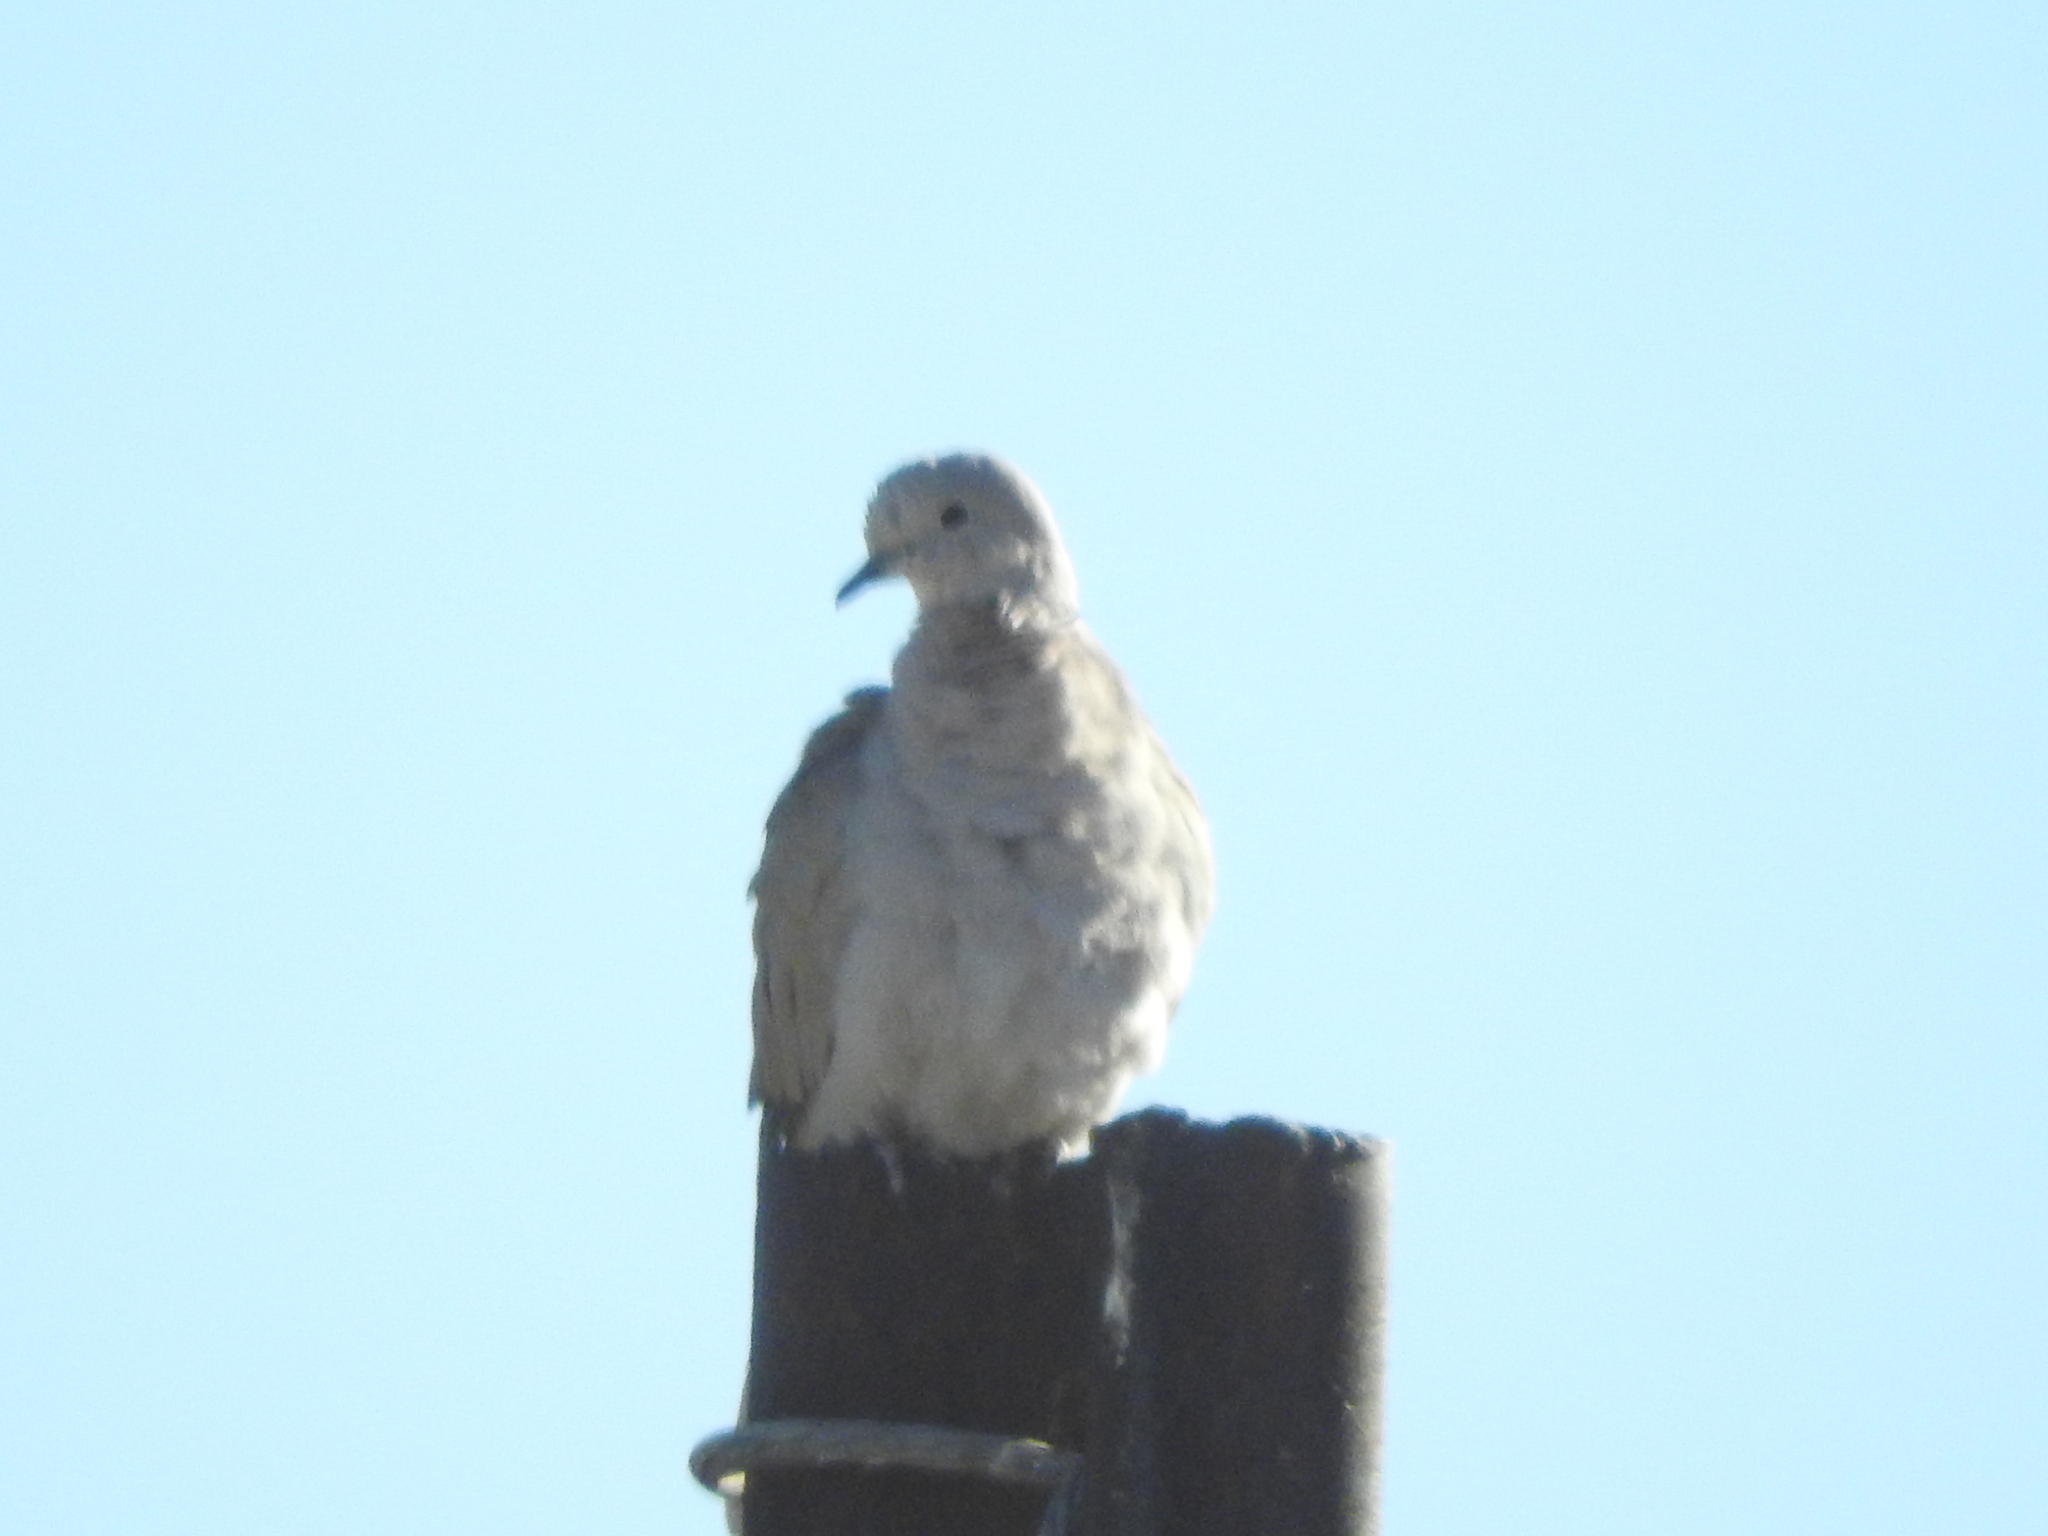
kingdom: Animalia
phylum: Chordata
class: Aves
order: Columbiformes
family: Columbidae
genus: Streptopelia
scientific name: Streptopelia decaocto
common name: Eurasian collared dove
